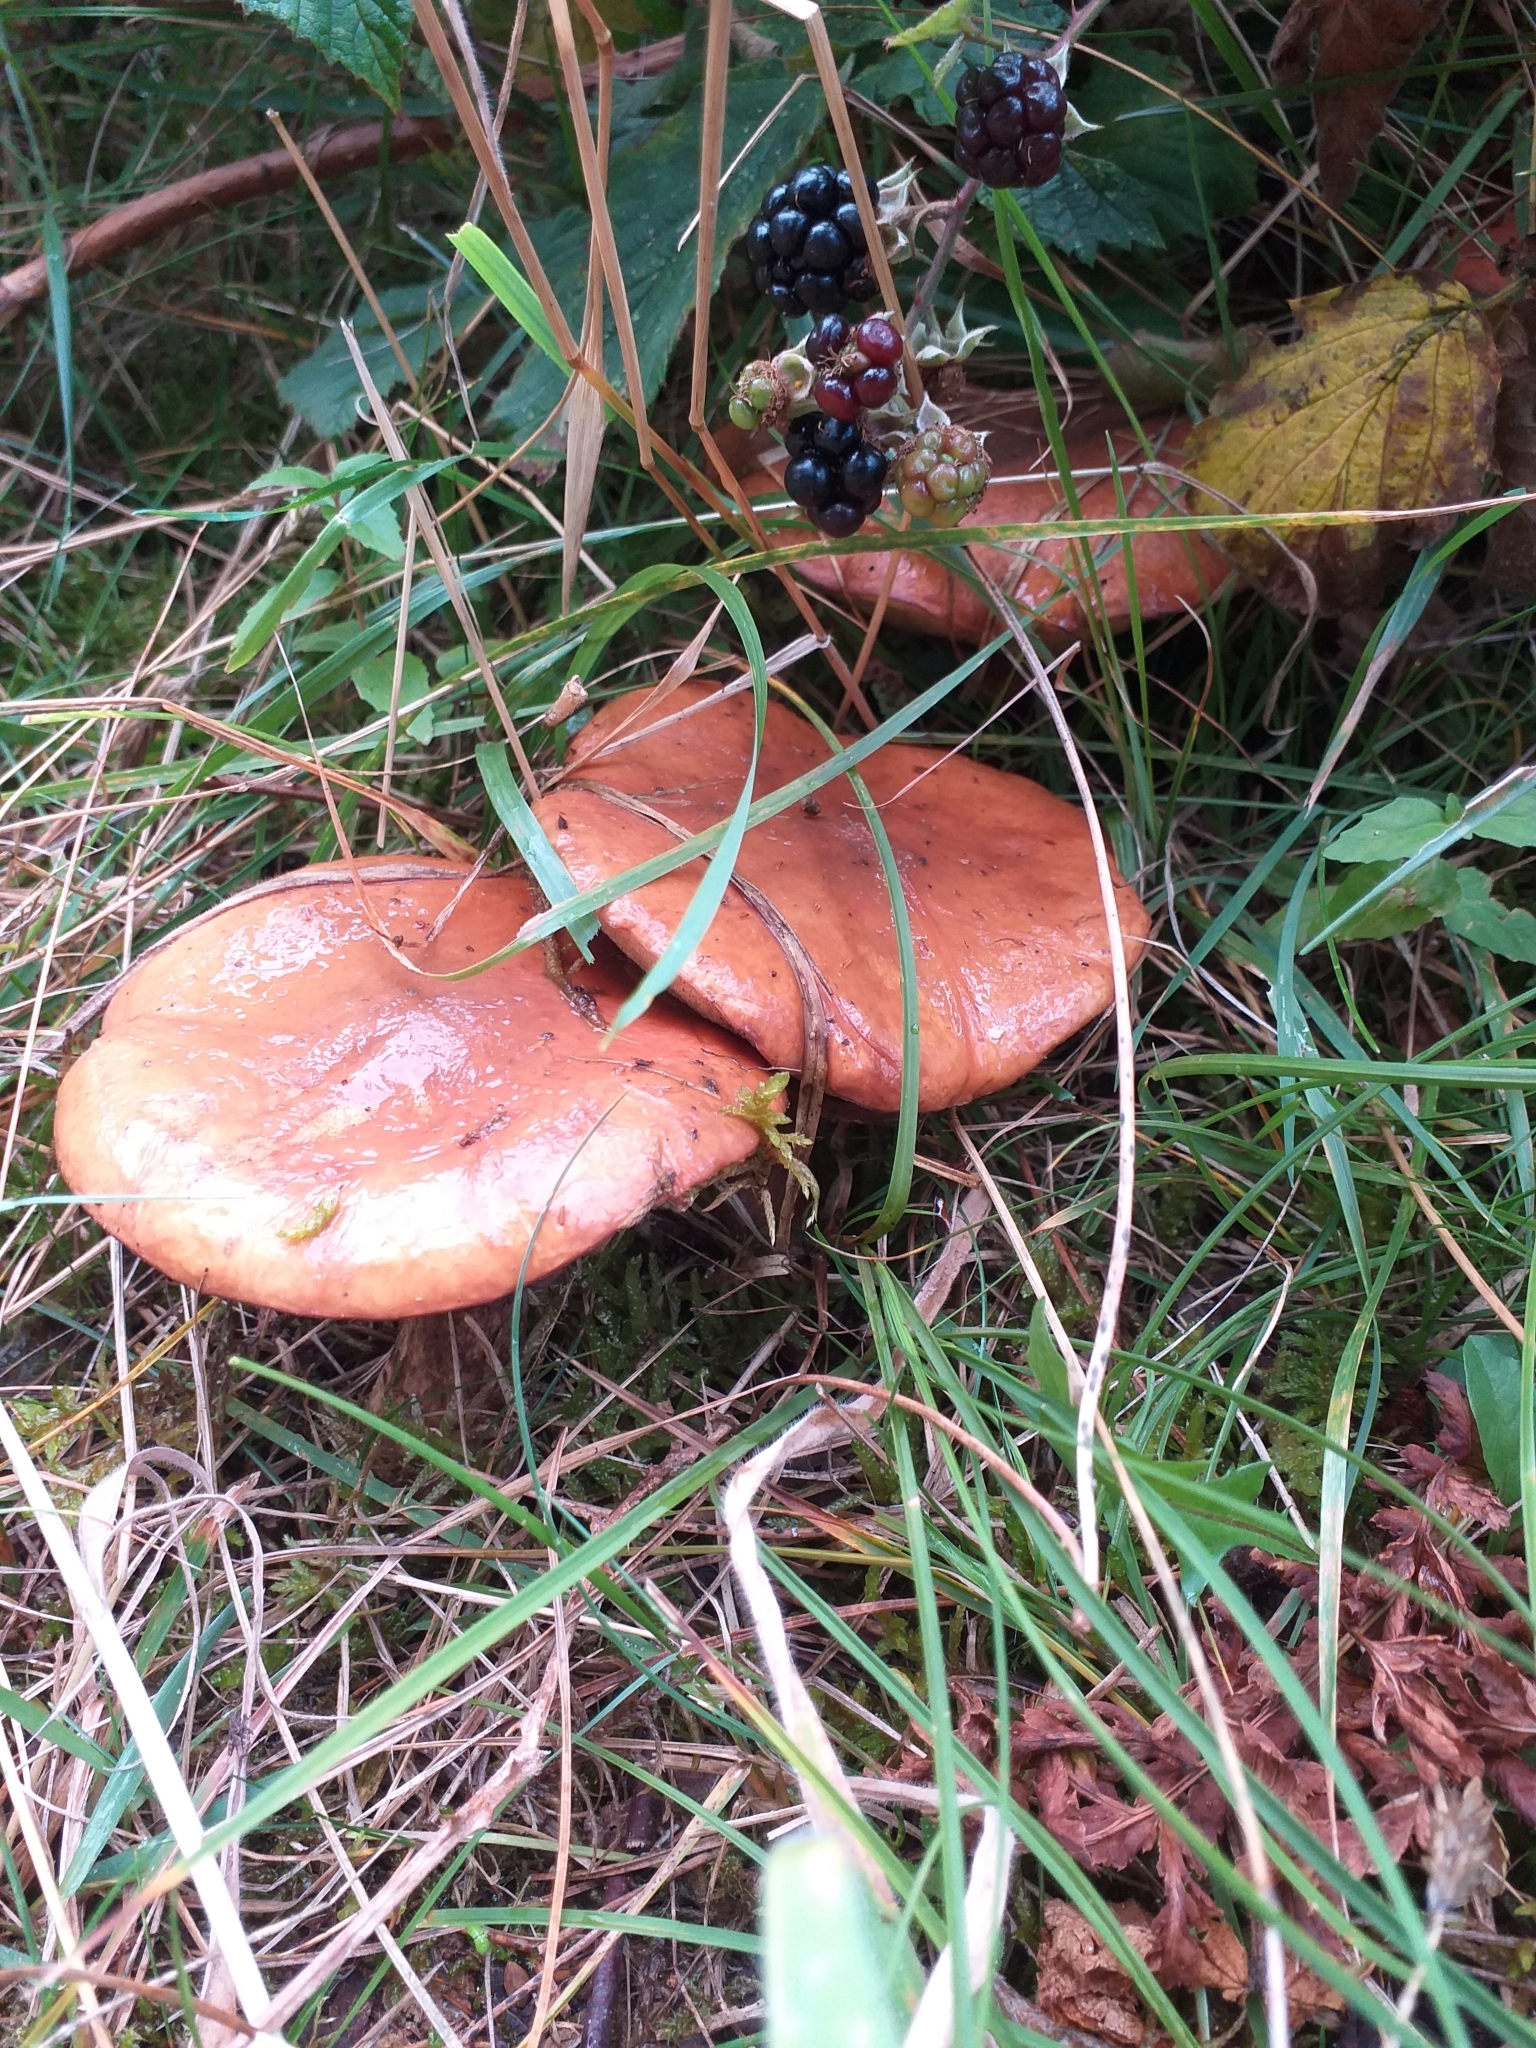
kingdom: Fungi
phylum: Basidiomycota
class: Agaricomycetes
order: Boletales
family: Suillaceae
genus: Suillus
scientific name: Suillus luteus
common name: Slippery jack
